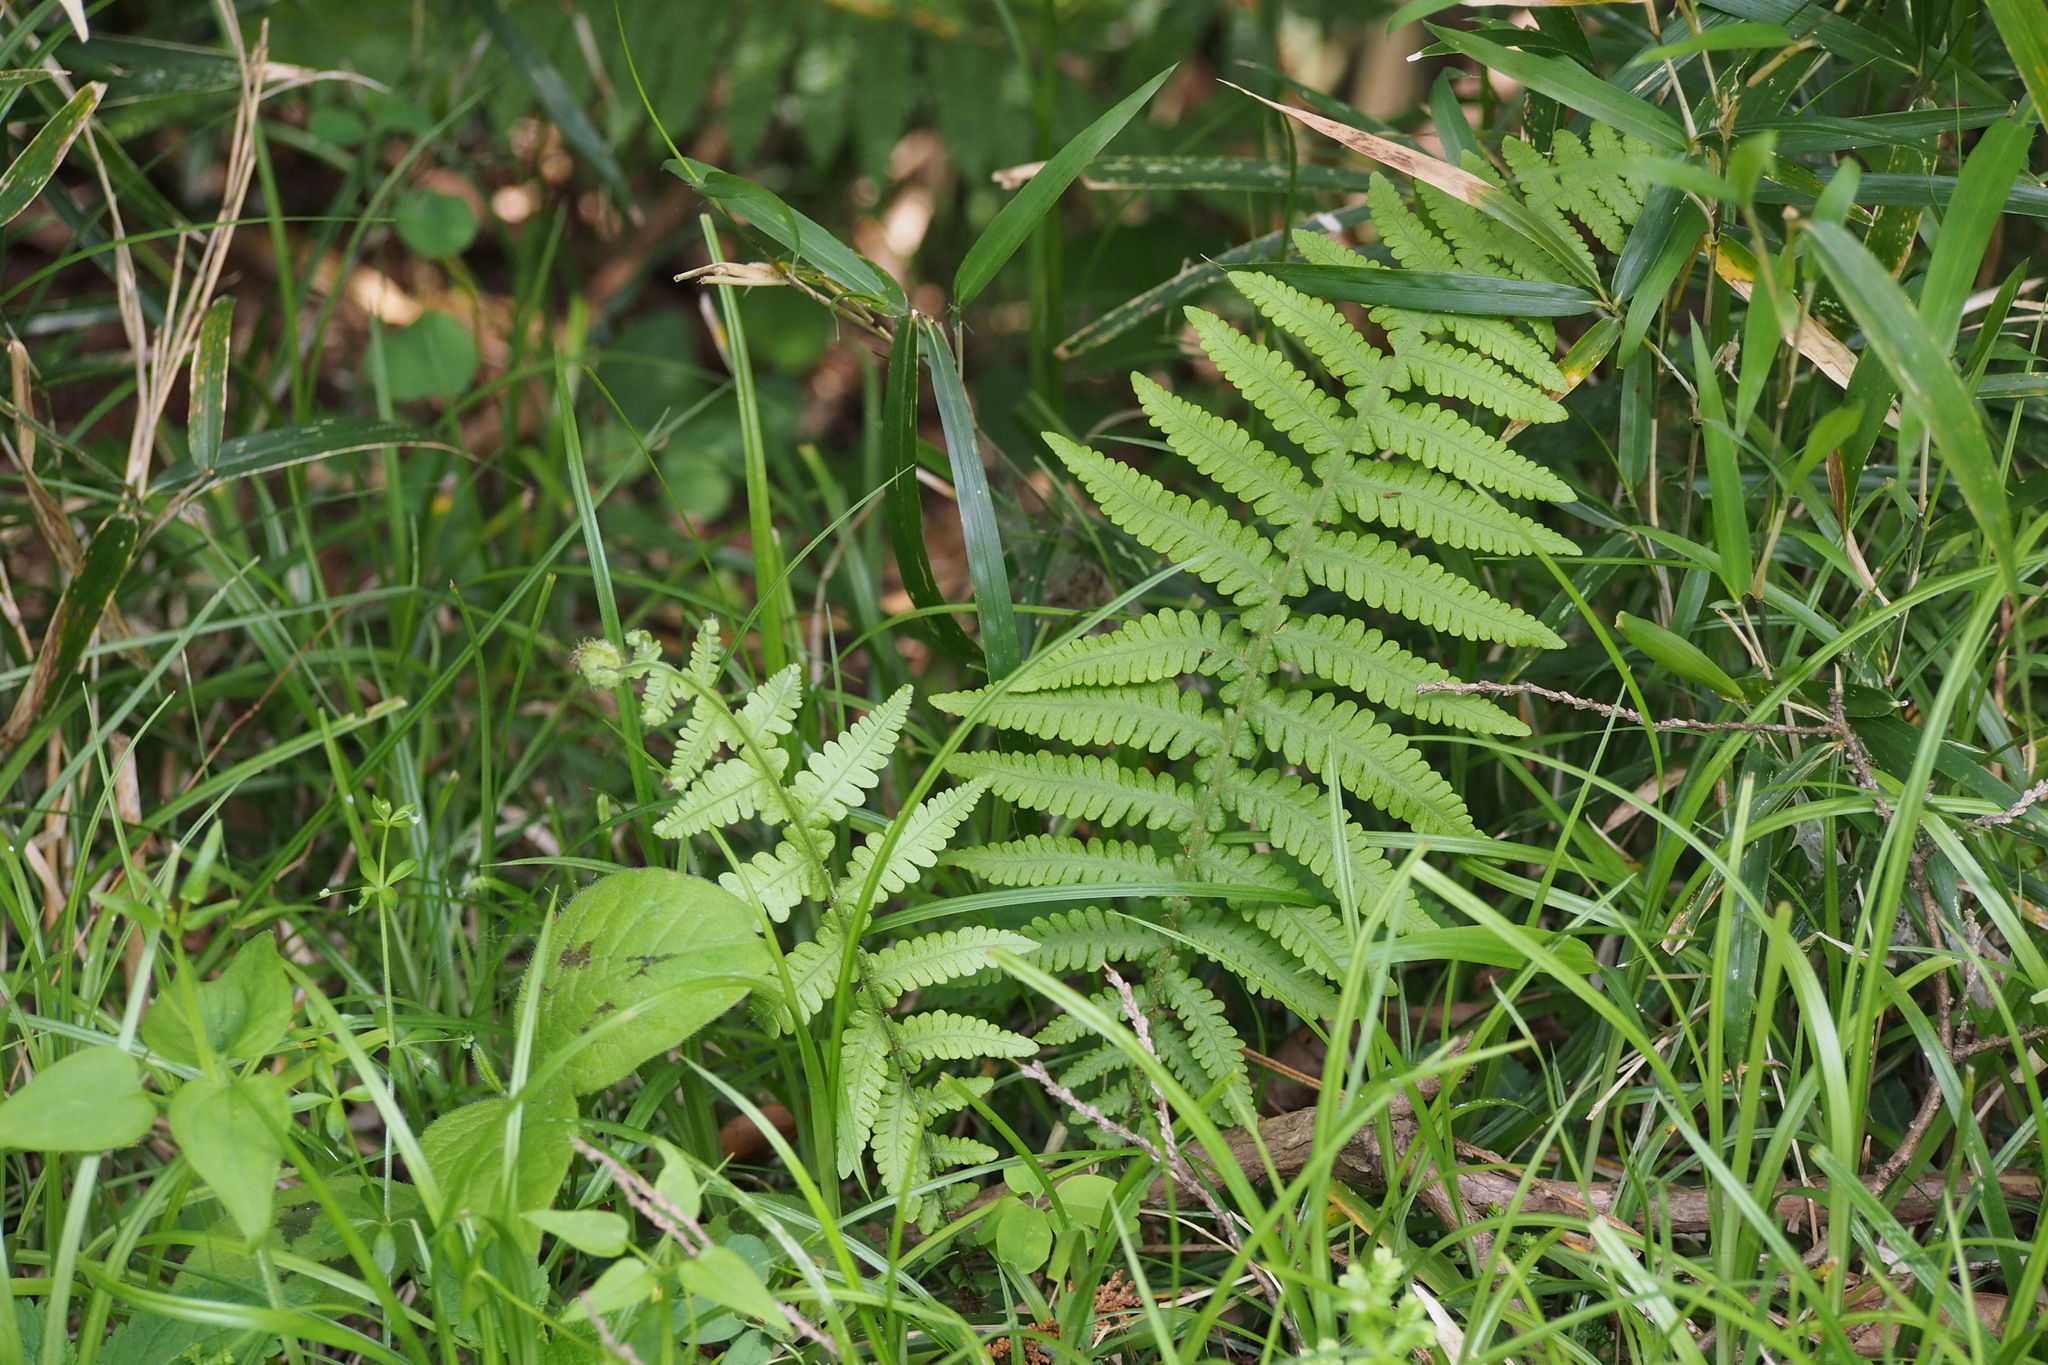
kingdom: Plantae
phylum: Tracheophyta
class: Polypodiopsida
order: Polypodiales
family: Thelypteridaceae
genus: Phegopteris
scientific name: Phegopteris decursive-pinnata
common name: Japanese beech fern
